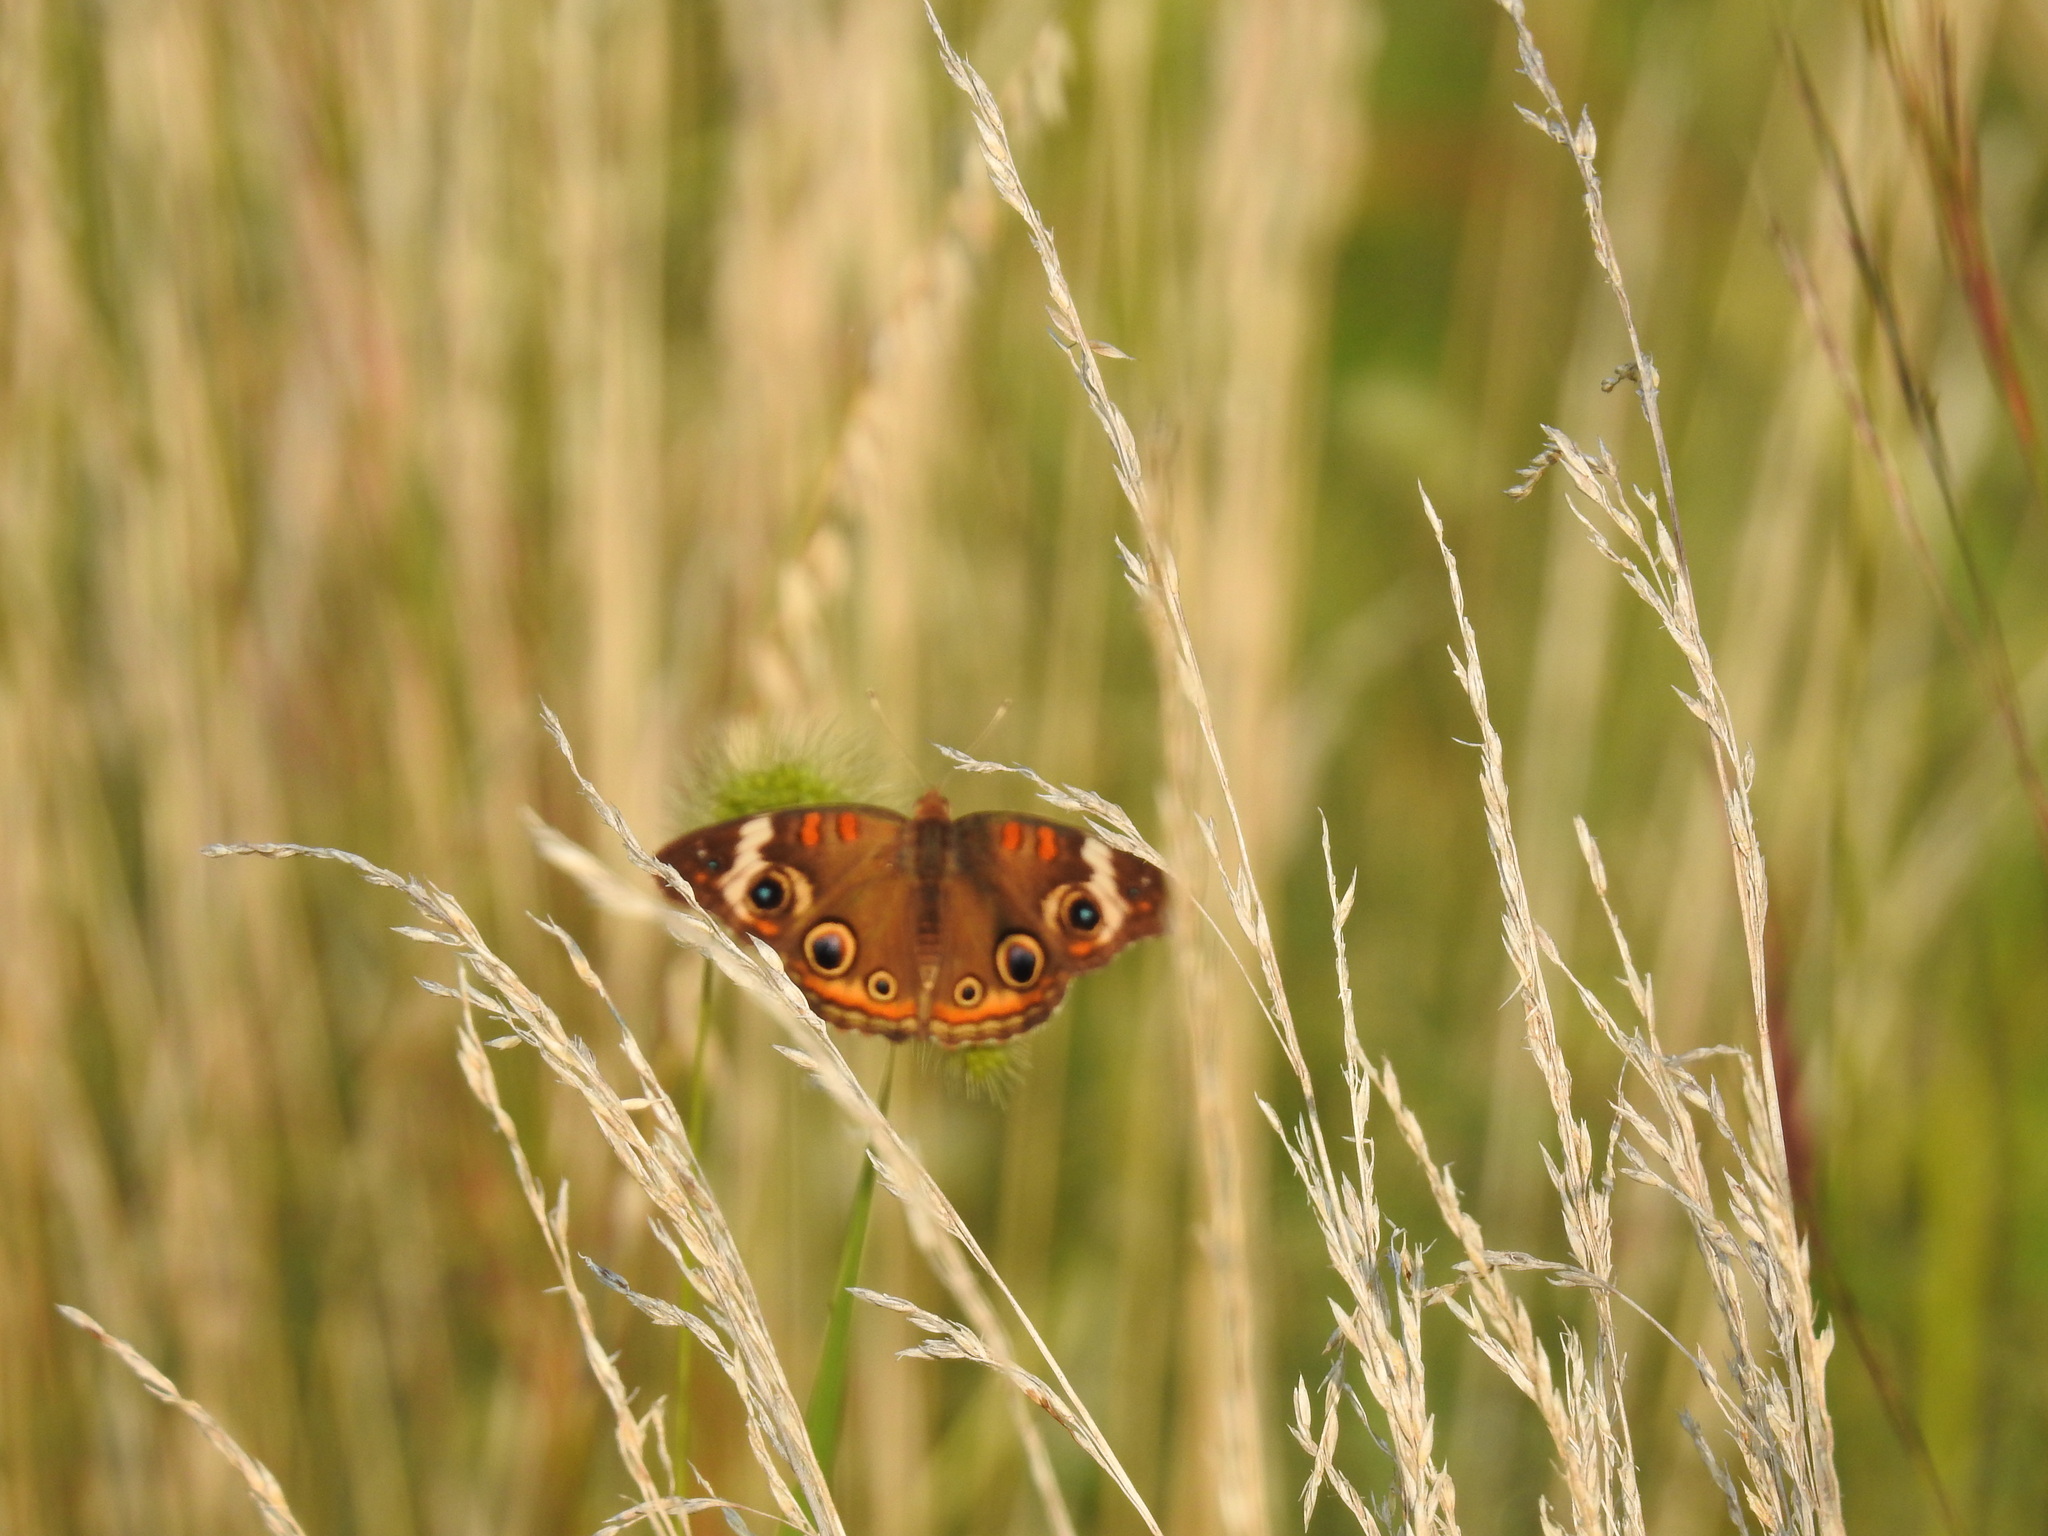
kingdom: Animalia
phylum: Arthropoda
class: Insecta
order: Lepidoptera
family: Nymphalidae
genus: Junonia
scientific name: Junonia coenia
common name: Common buckeye
